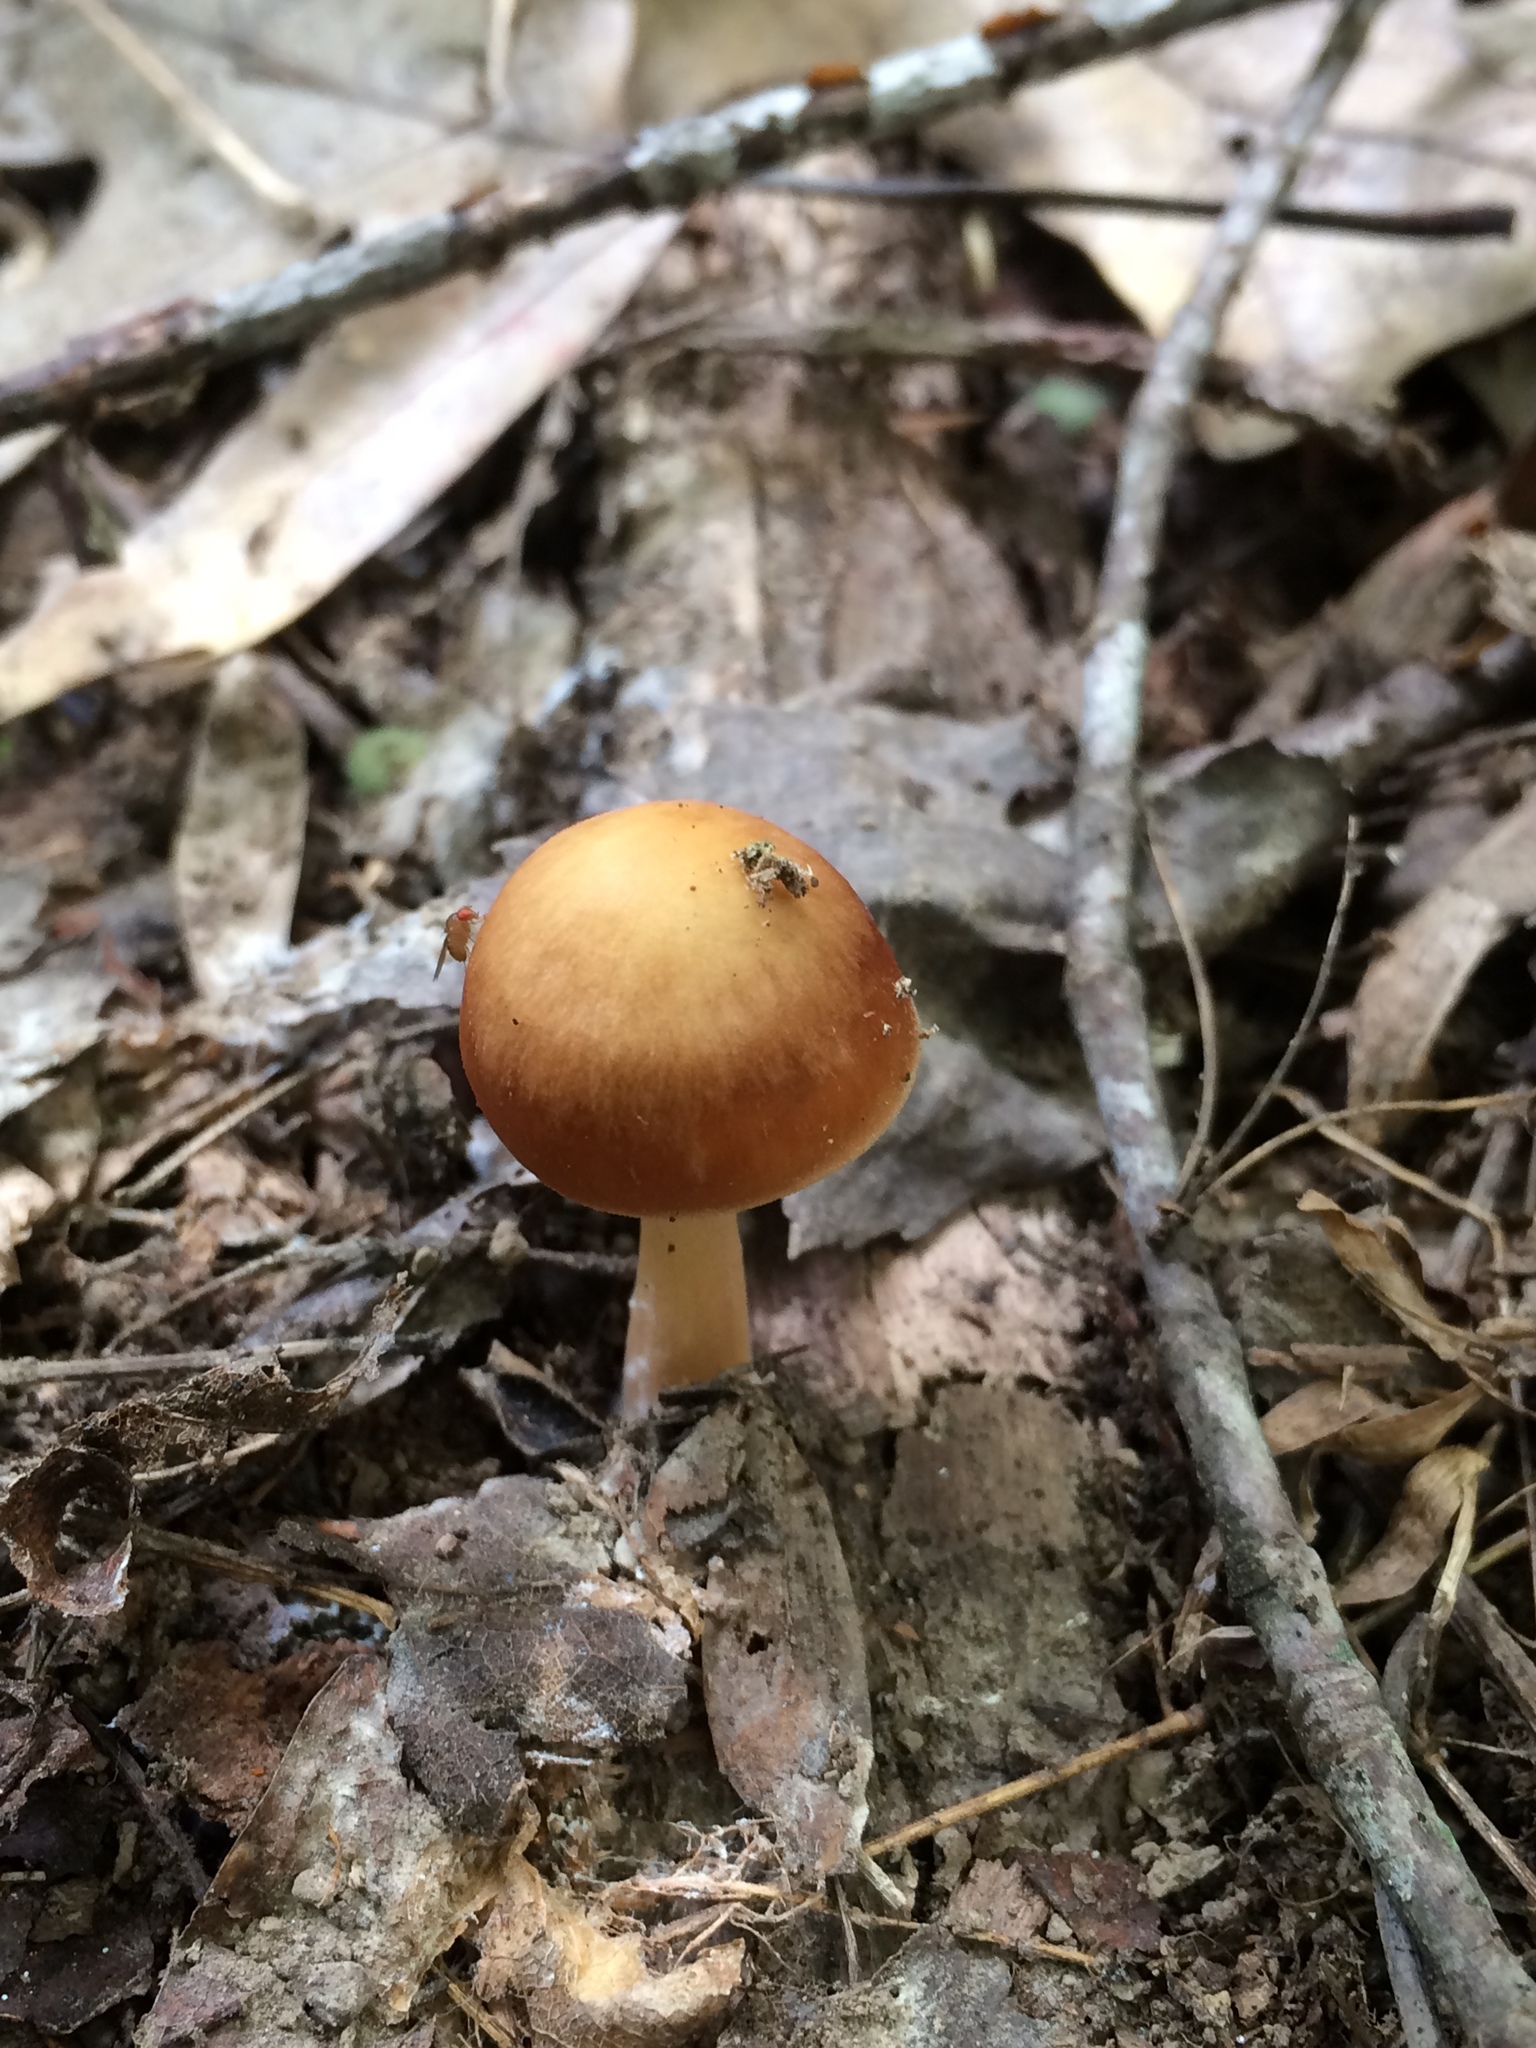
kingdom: Fungi
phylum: Basidiomycota
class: Agaricomycetes
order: Agaricales
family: Omphalotaceae
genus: Gymnopus
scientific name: Gymnopus dryophilus
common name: Penny top
